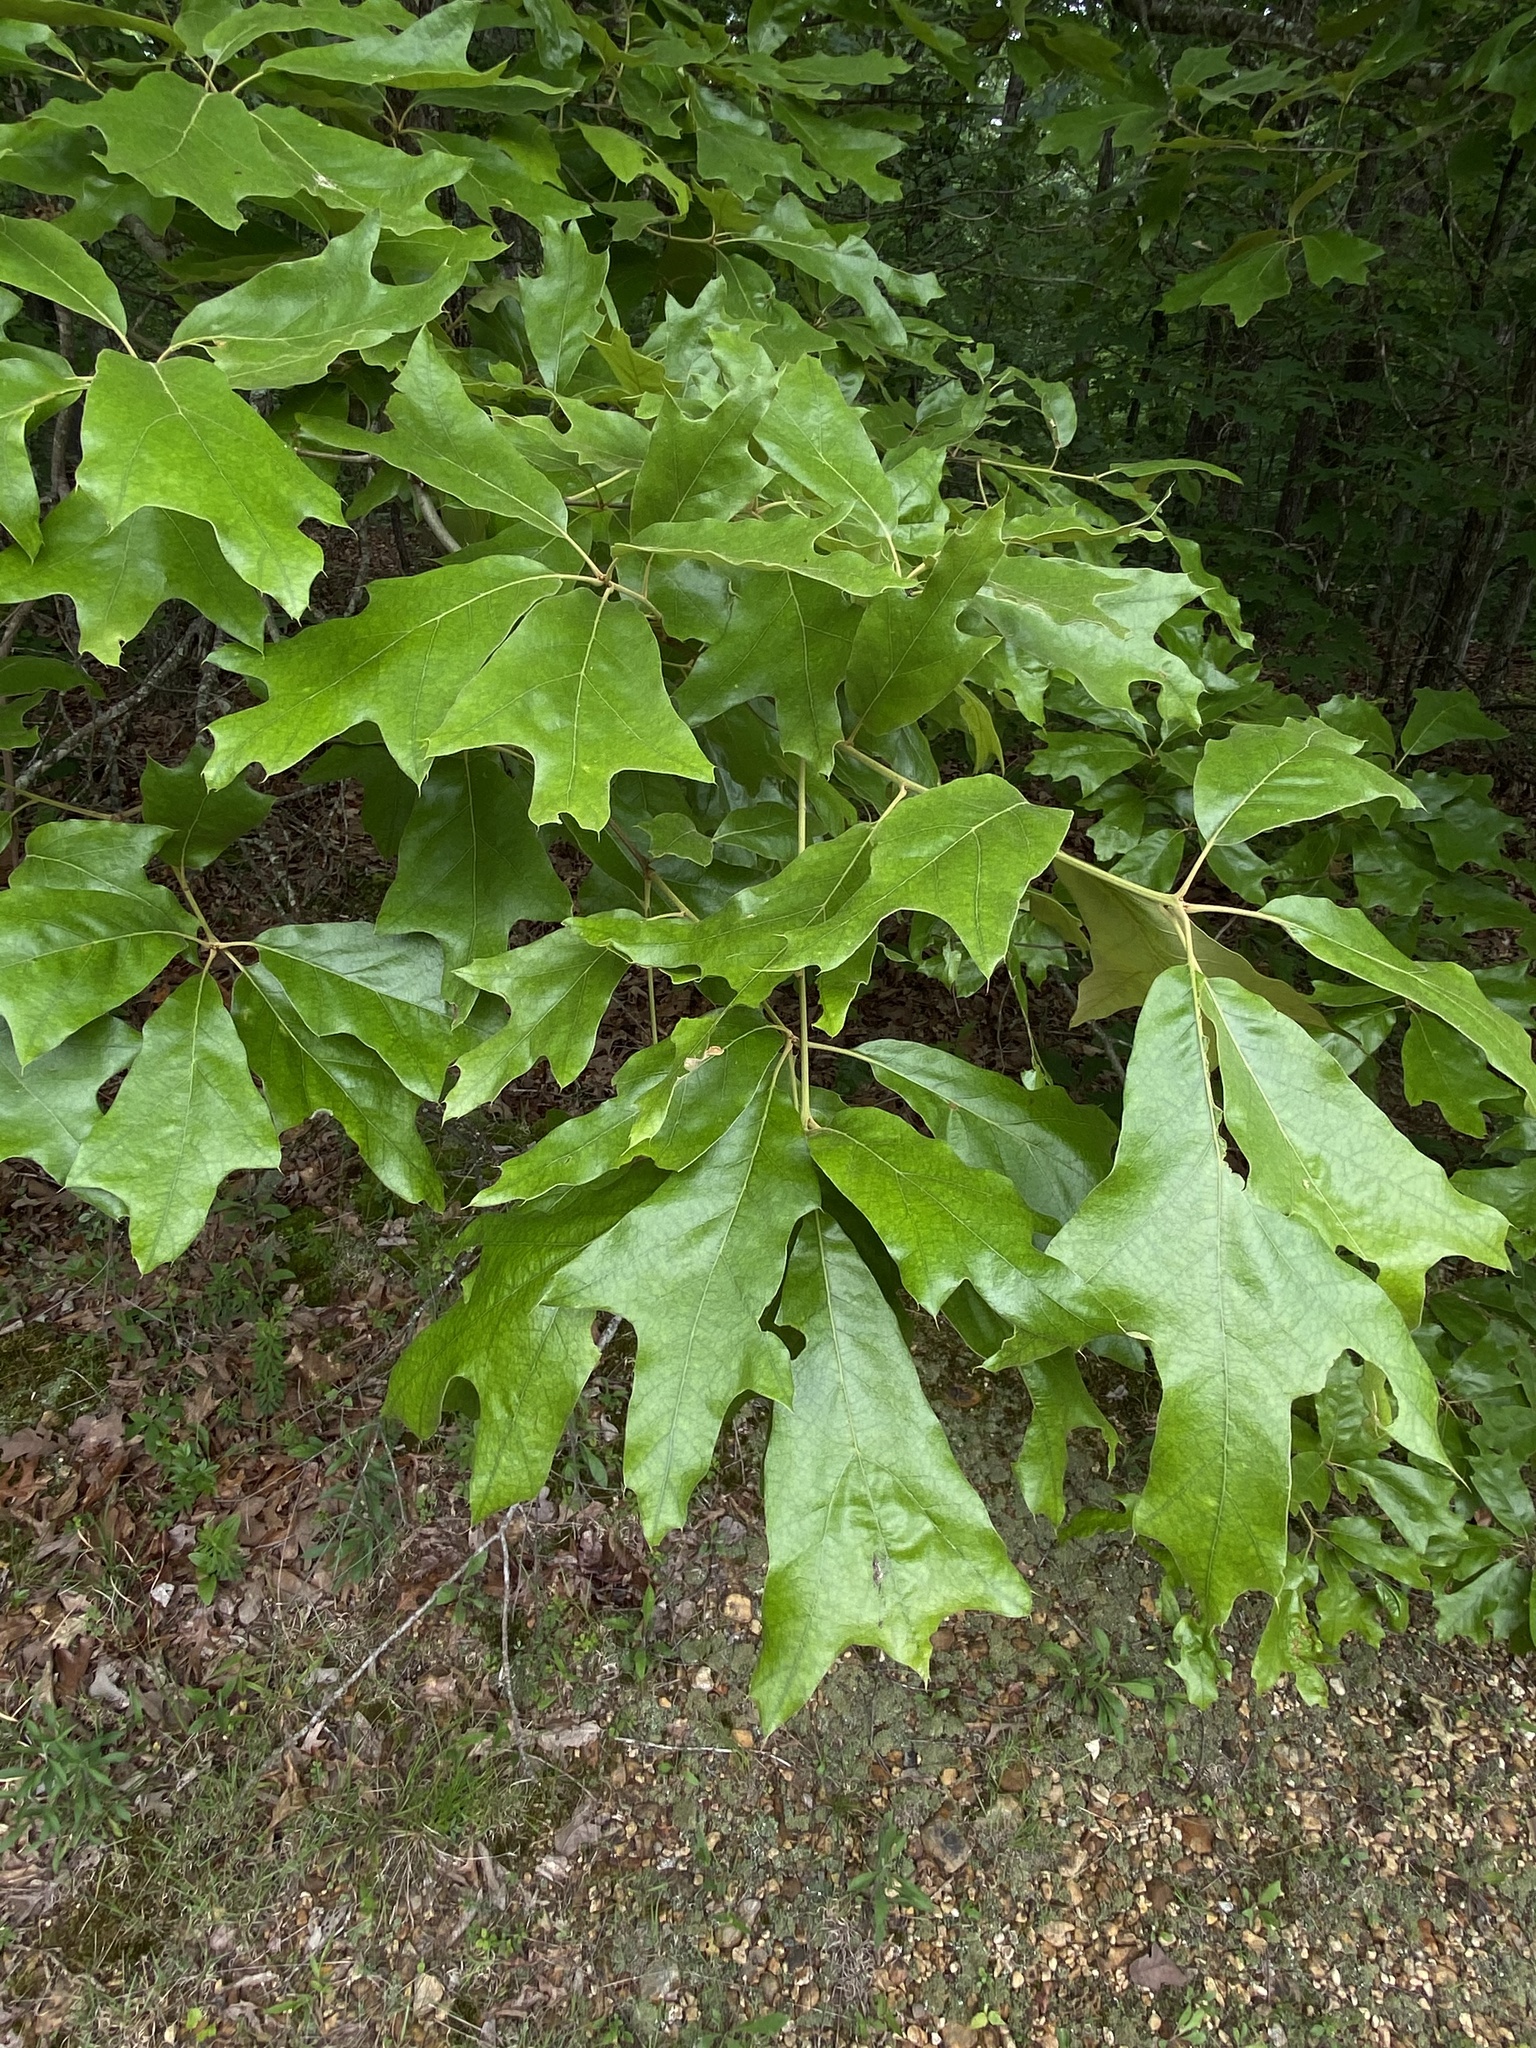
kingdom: Plantae
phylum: Tracheophyta
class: Magnoliopsida
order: Fagales
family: Fagaceae
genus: Quercus
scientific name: Quercus falcata
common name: Southern red oak
